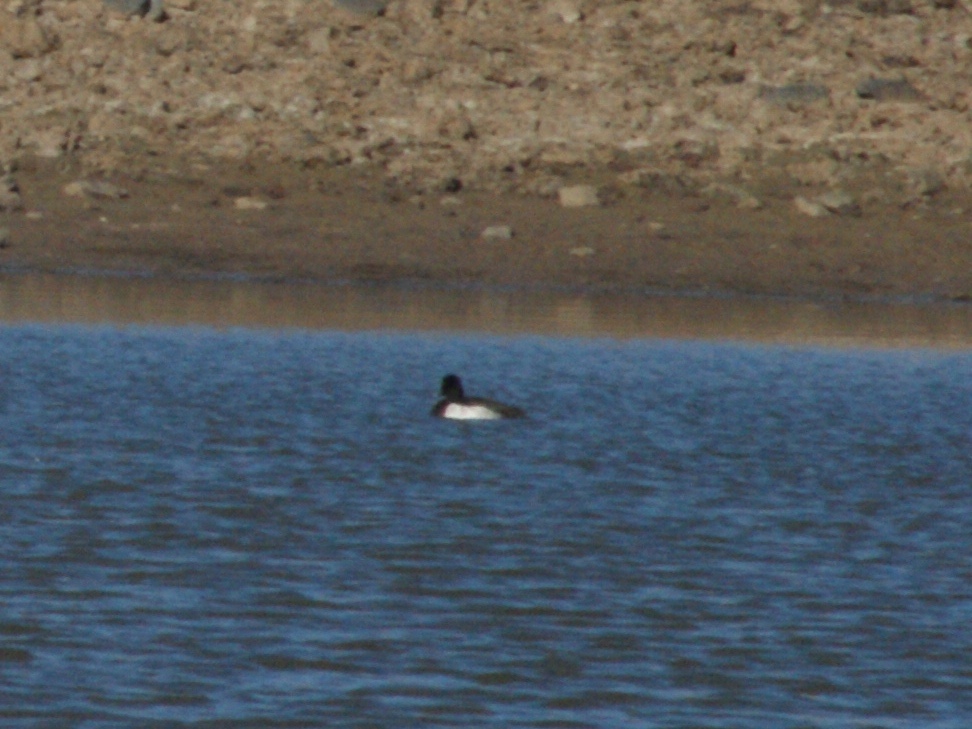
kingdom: Animalia
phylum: Chordata
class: Aves
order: Anseriformes
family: Anatidae
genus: Aythya
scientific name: Aythya fuligula
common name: Tufted duck
